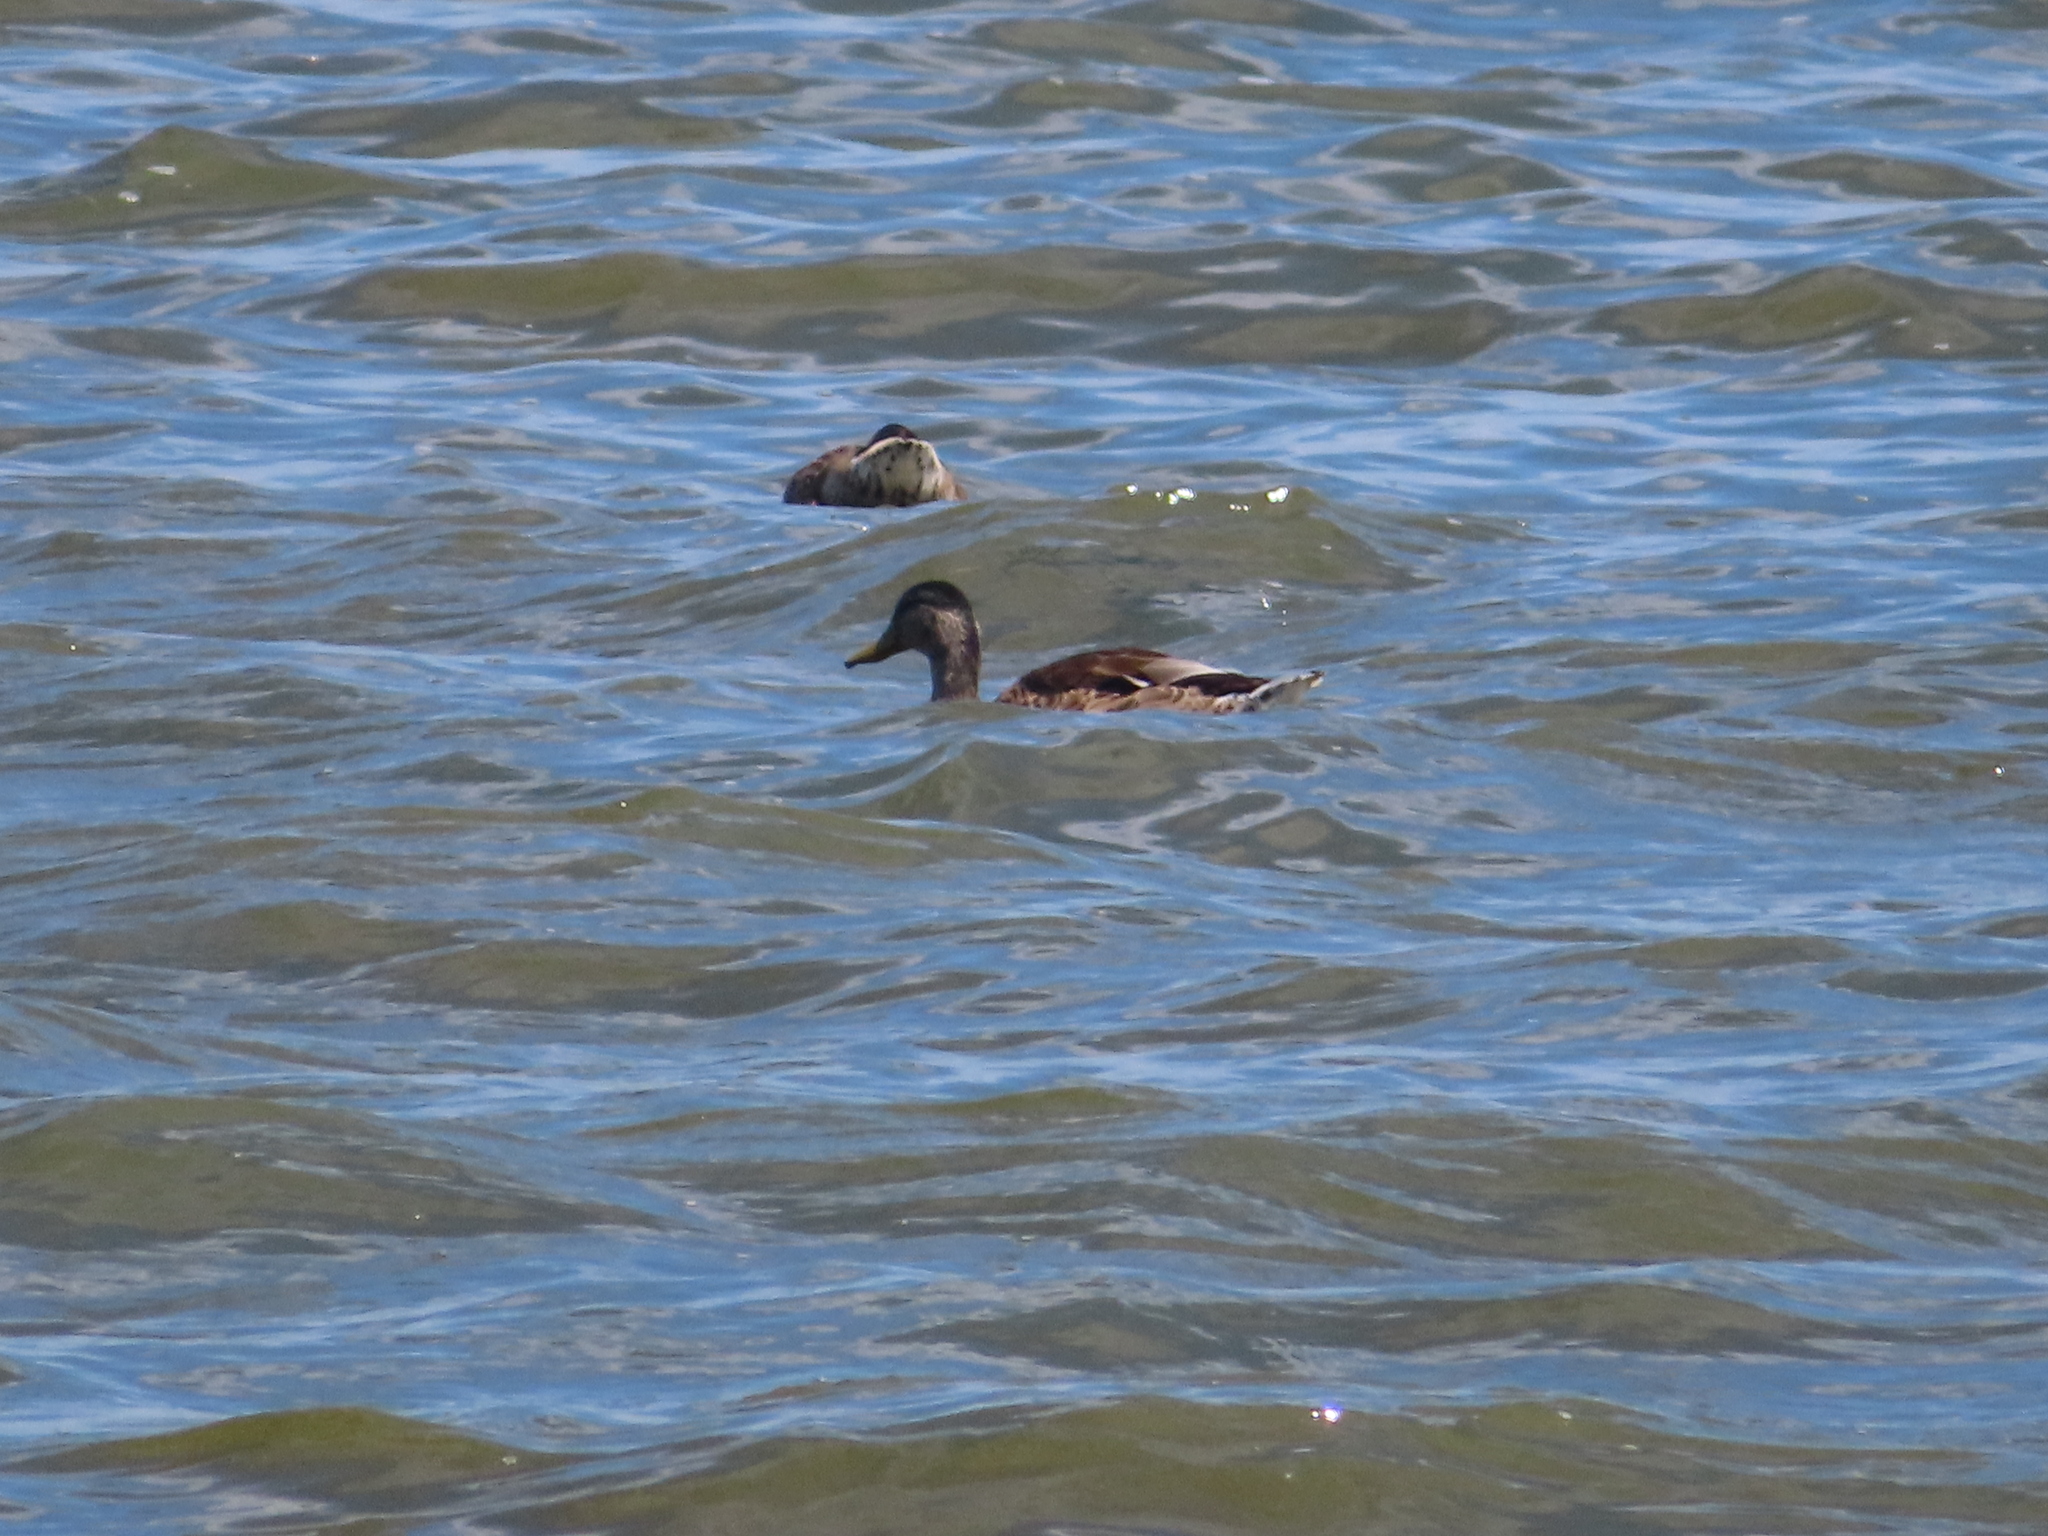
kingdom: Animalia
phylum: Chordata
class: Aves
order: Anseriformes
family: Anatidae
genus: Anas
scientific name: Anas platyrhynchos
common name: Mallard
